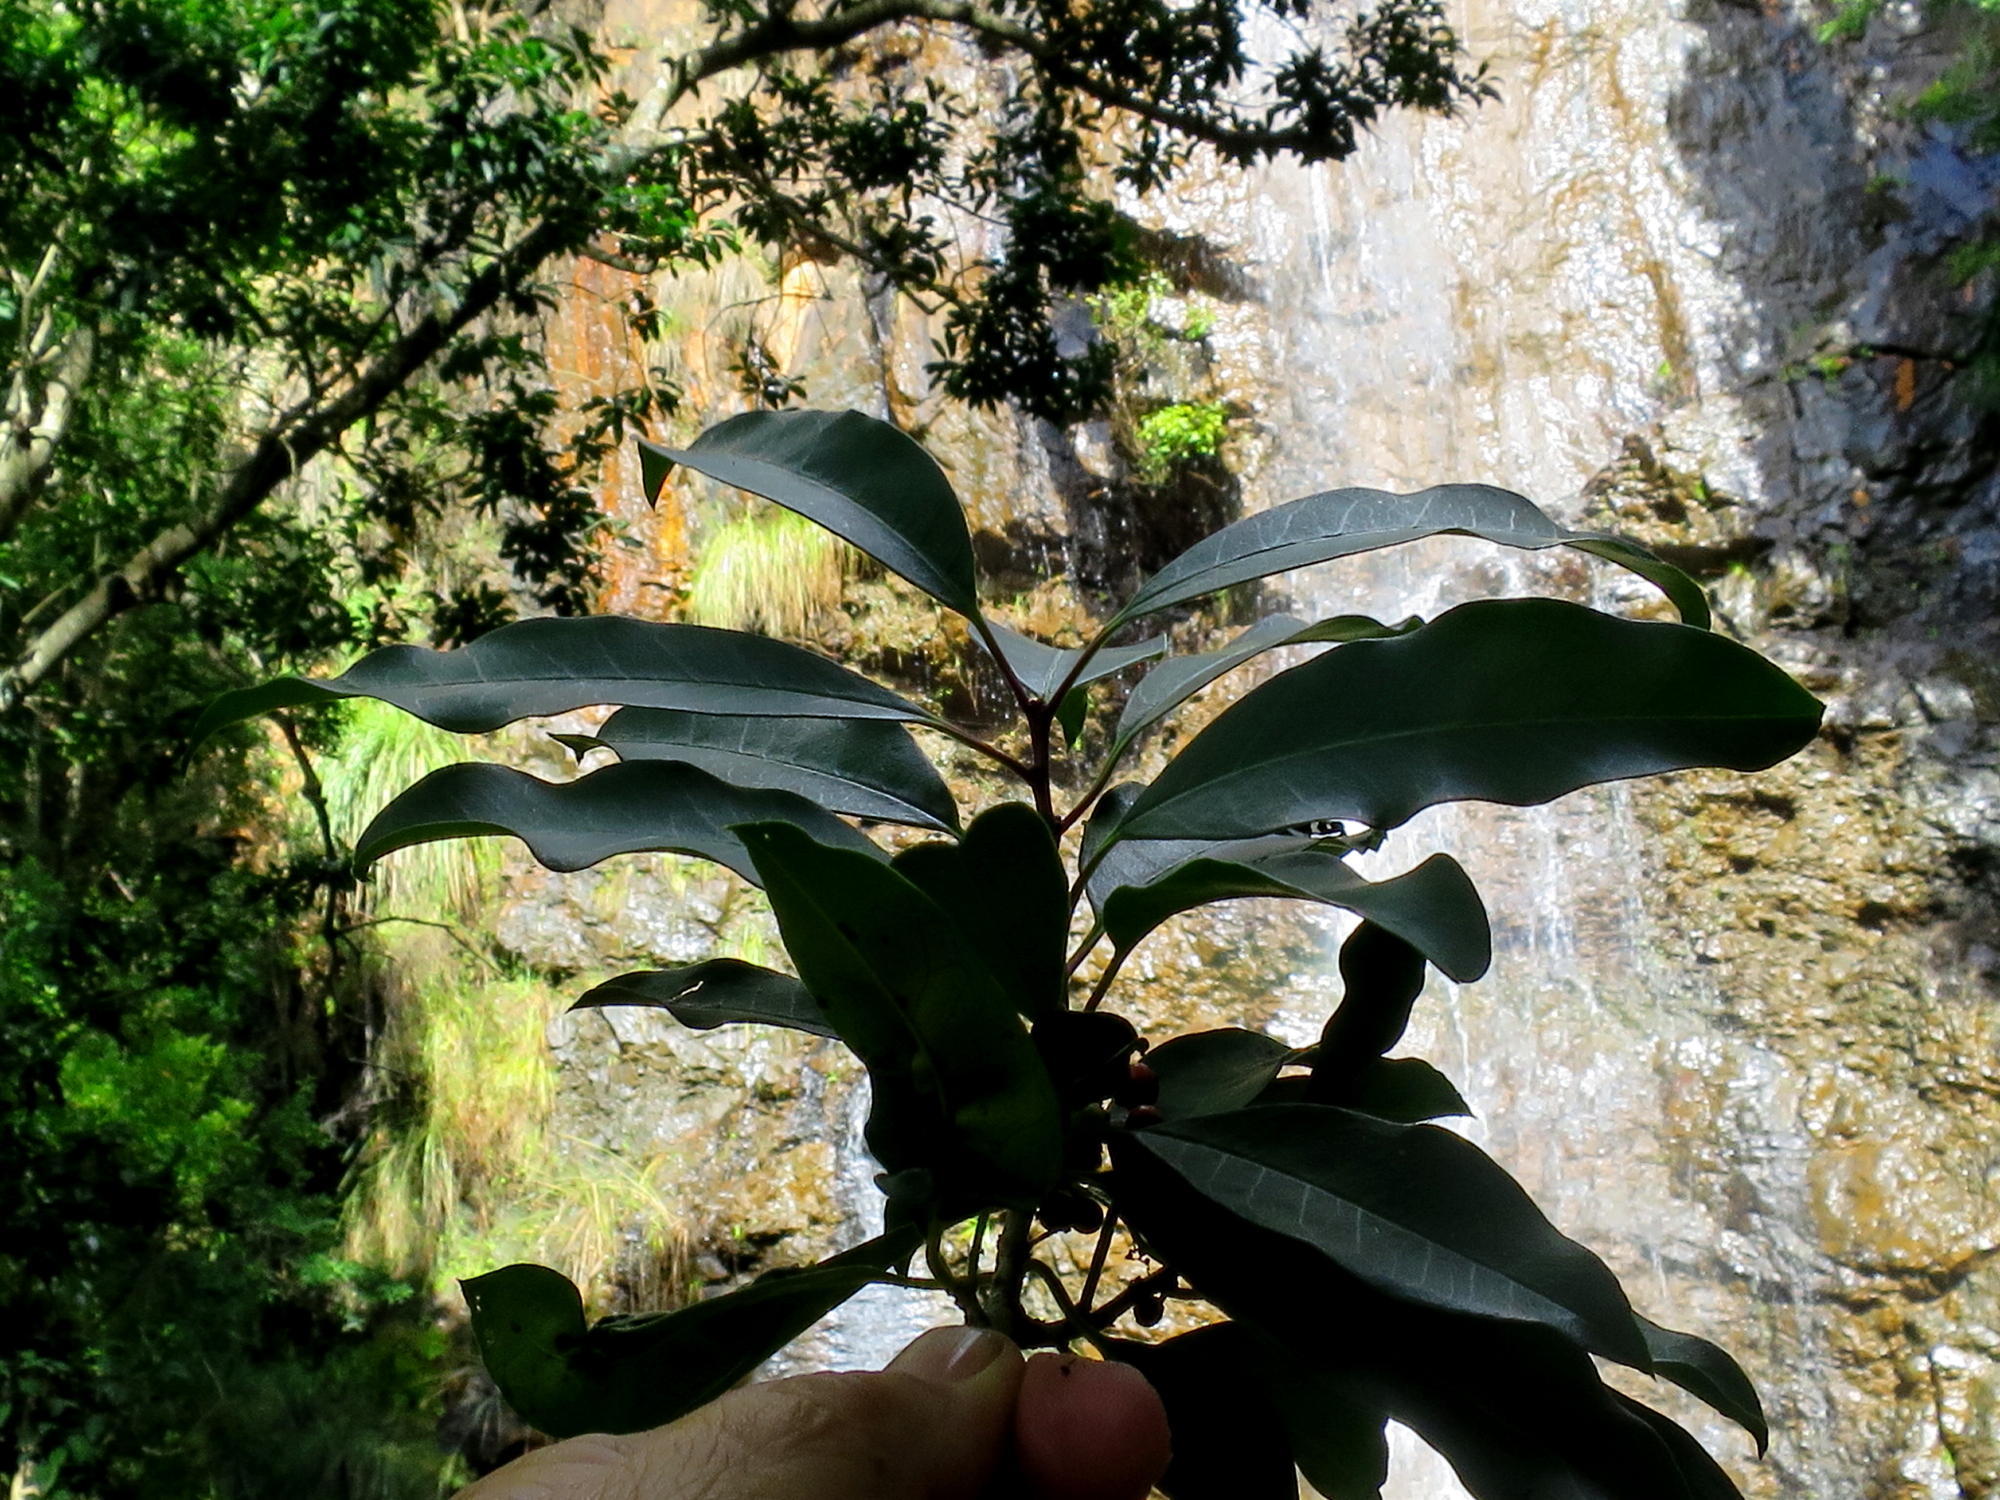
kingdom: Plantae
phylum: Tracheophyta
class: Magnoliopsida
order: Aquifoliales
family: Aquifoliaceae
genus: Ilex
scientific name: Ilex mitis
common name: African holly
